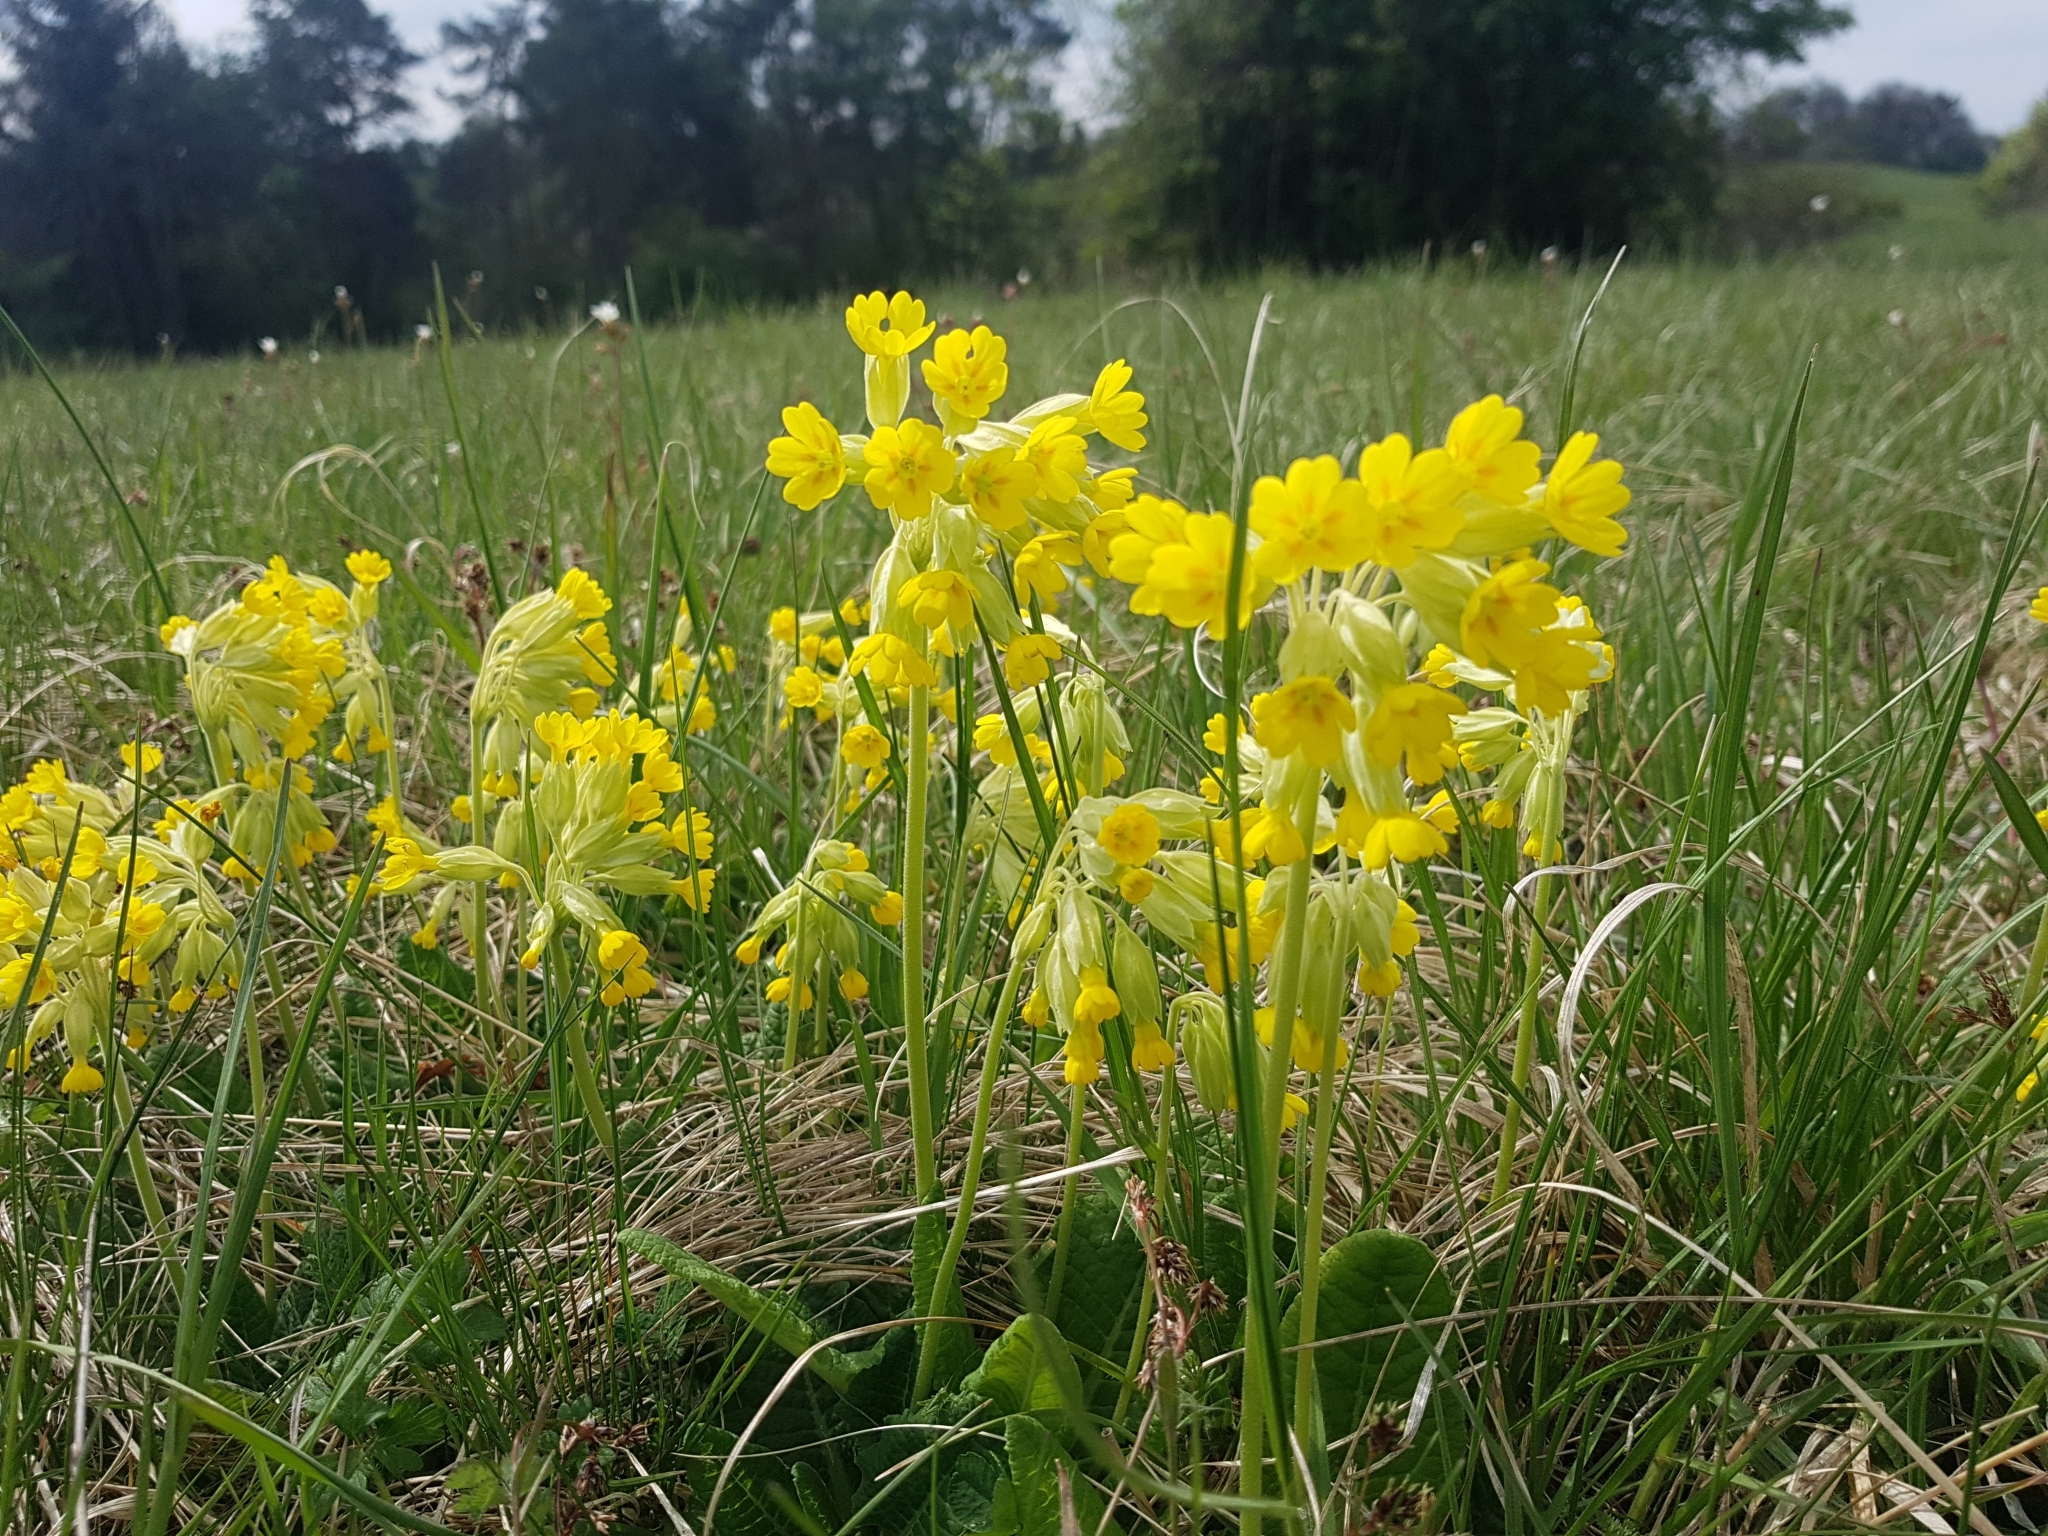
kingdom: Plantae
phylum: Tracheophyta
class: Magnoliopsida
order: Ericales
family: Primulaceae
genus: Primula
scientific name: Primula veris
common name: Cowslip
